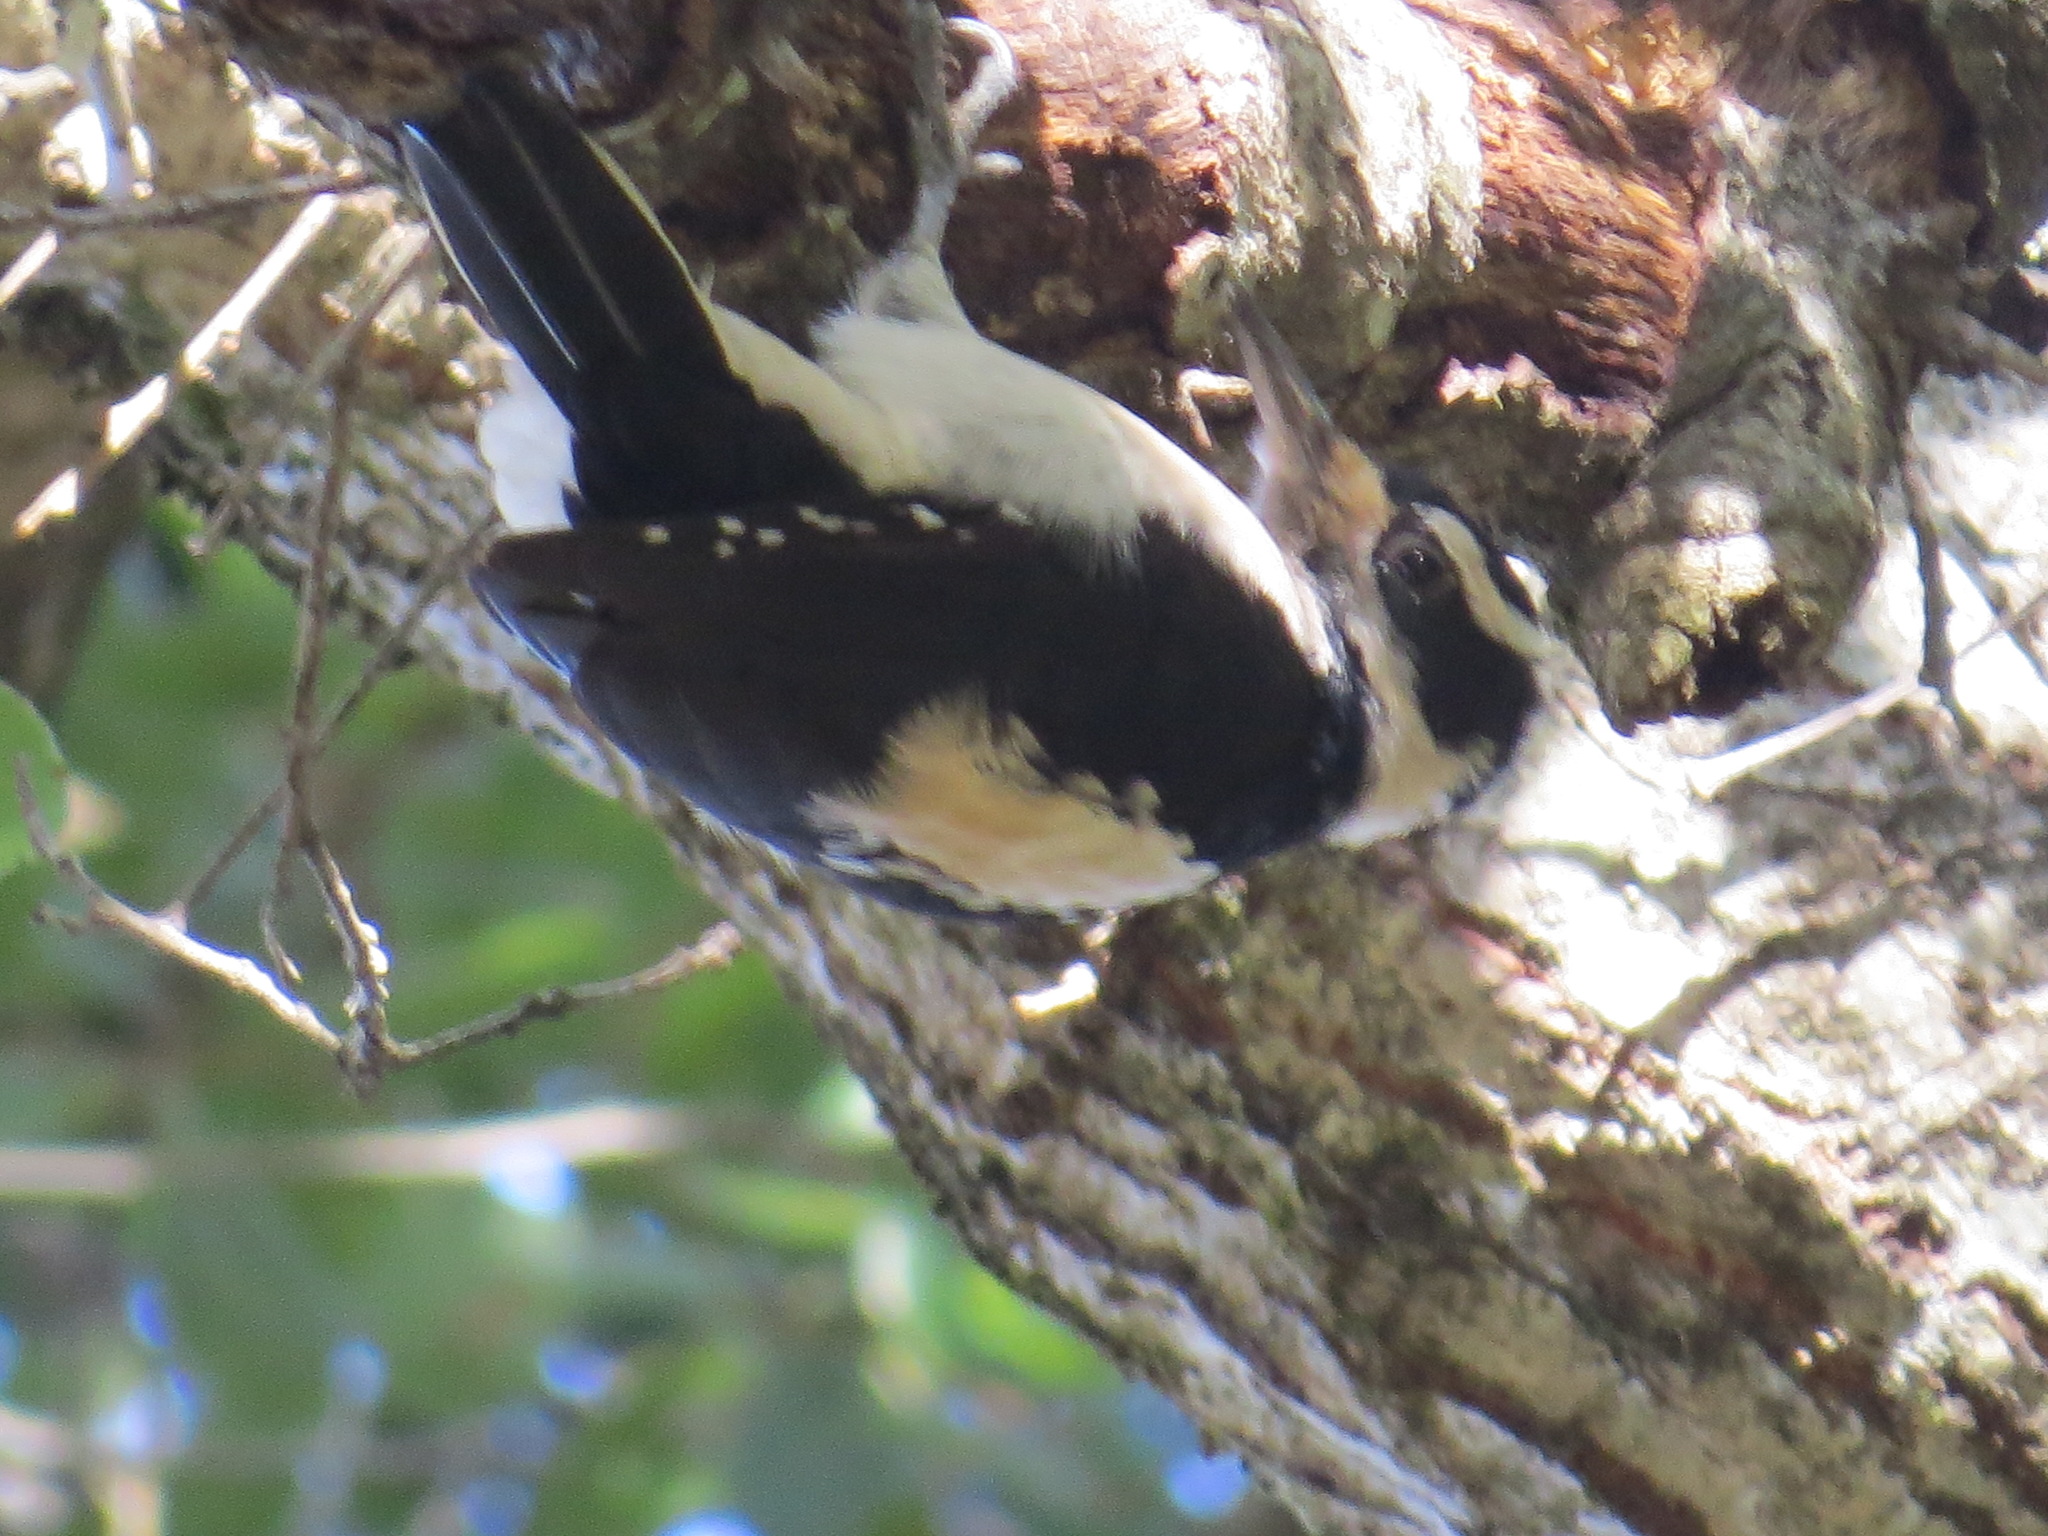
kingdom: Animalia
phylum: Chordata
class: Aves
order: Piciformes
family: Picidae
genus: Leuconotopicus
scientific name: Leuconotopicus villosus
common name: Hairy woodpecker
